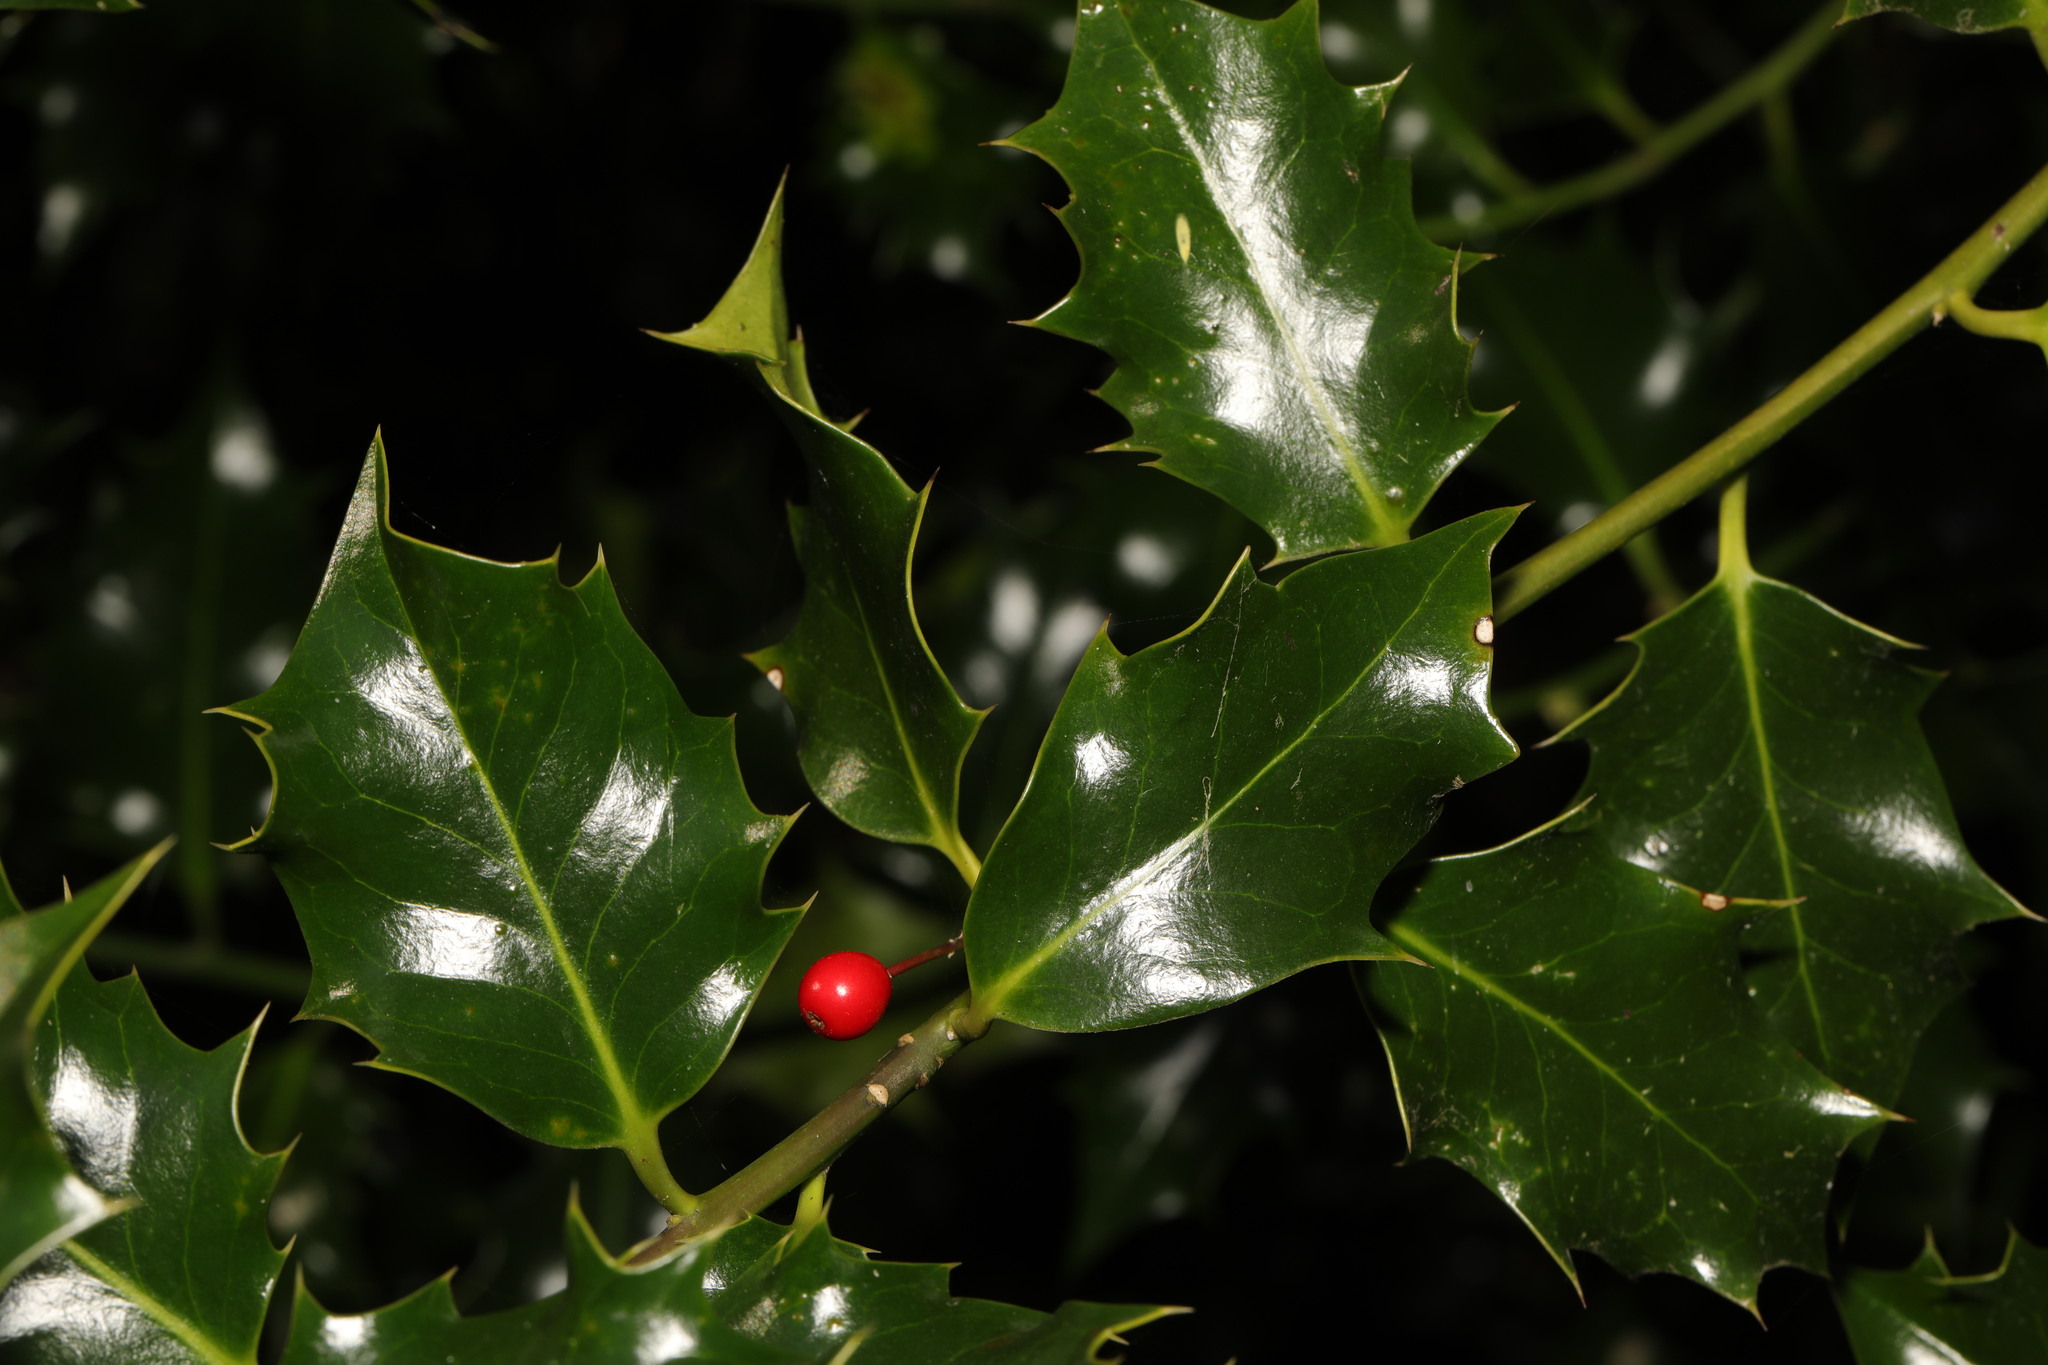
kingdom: Plantae
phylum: Tracheophyta
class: Magnoliopsida
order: Aquifoliales
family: Aquifoliaceae
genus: Ilex
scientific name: Ilex aquifolium
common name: English holly
